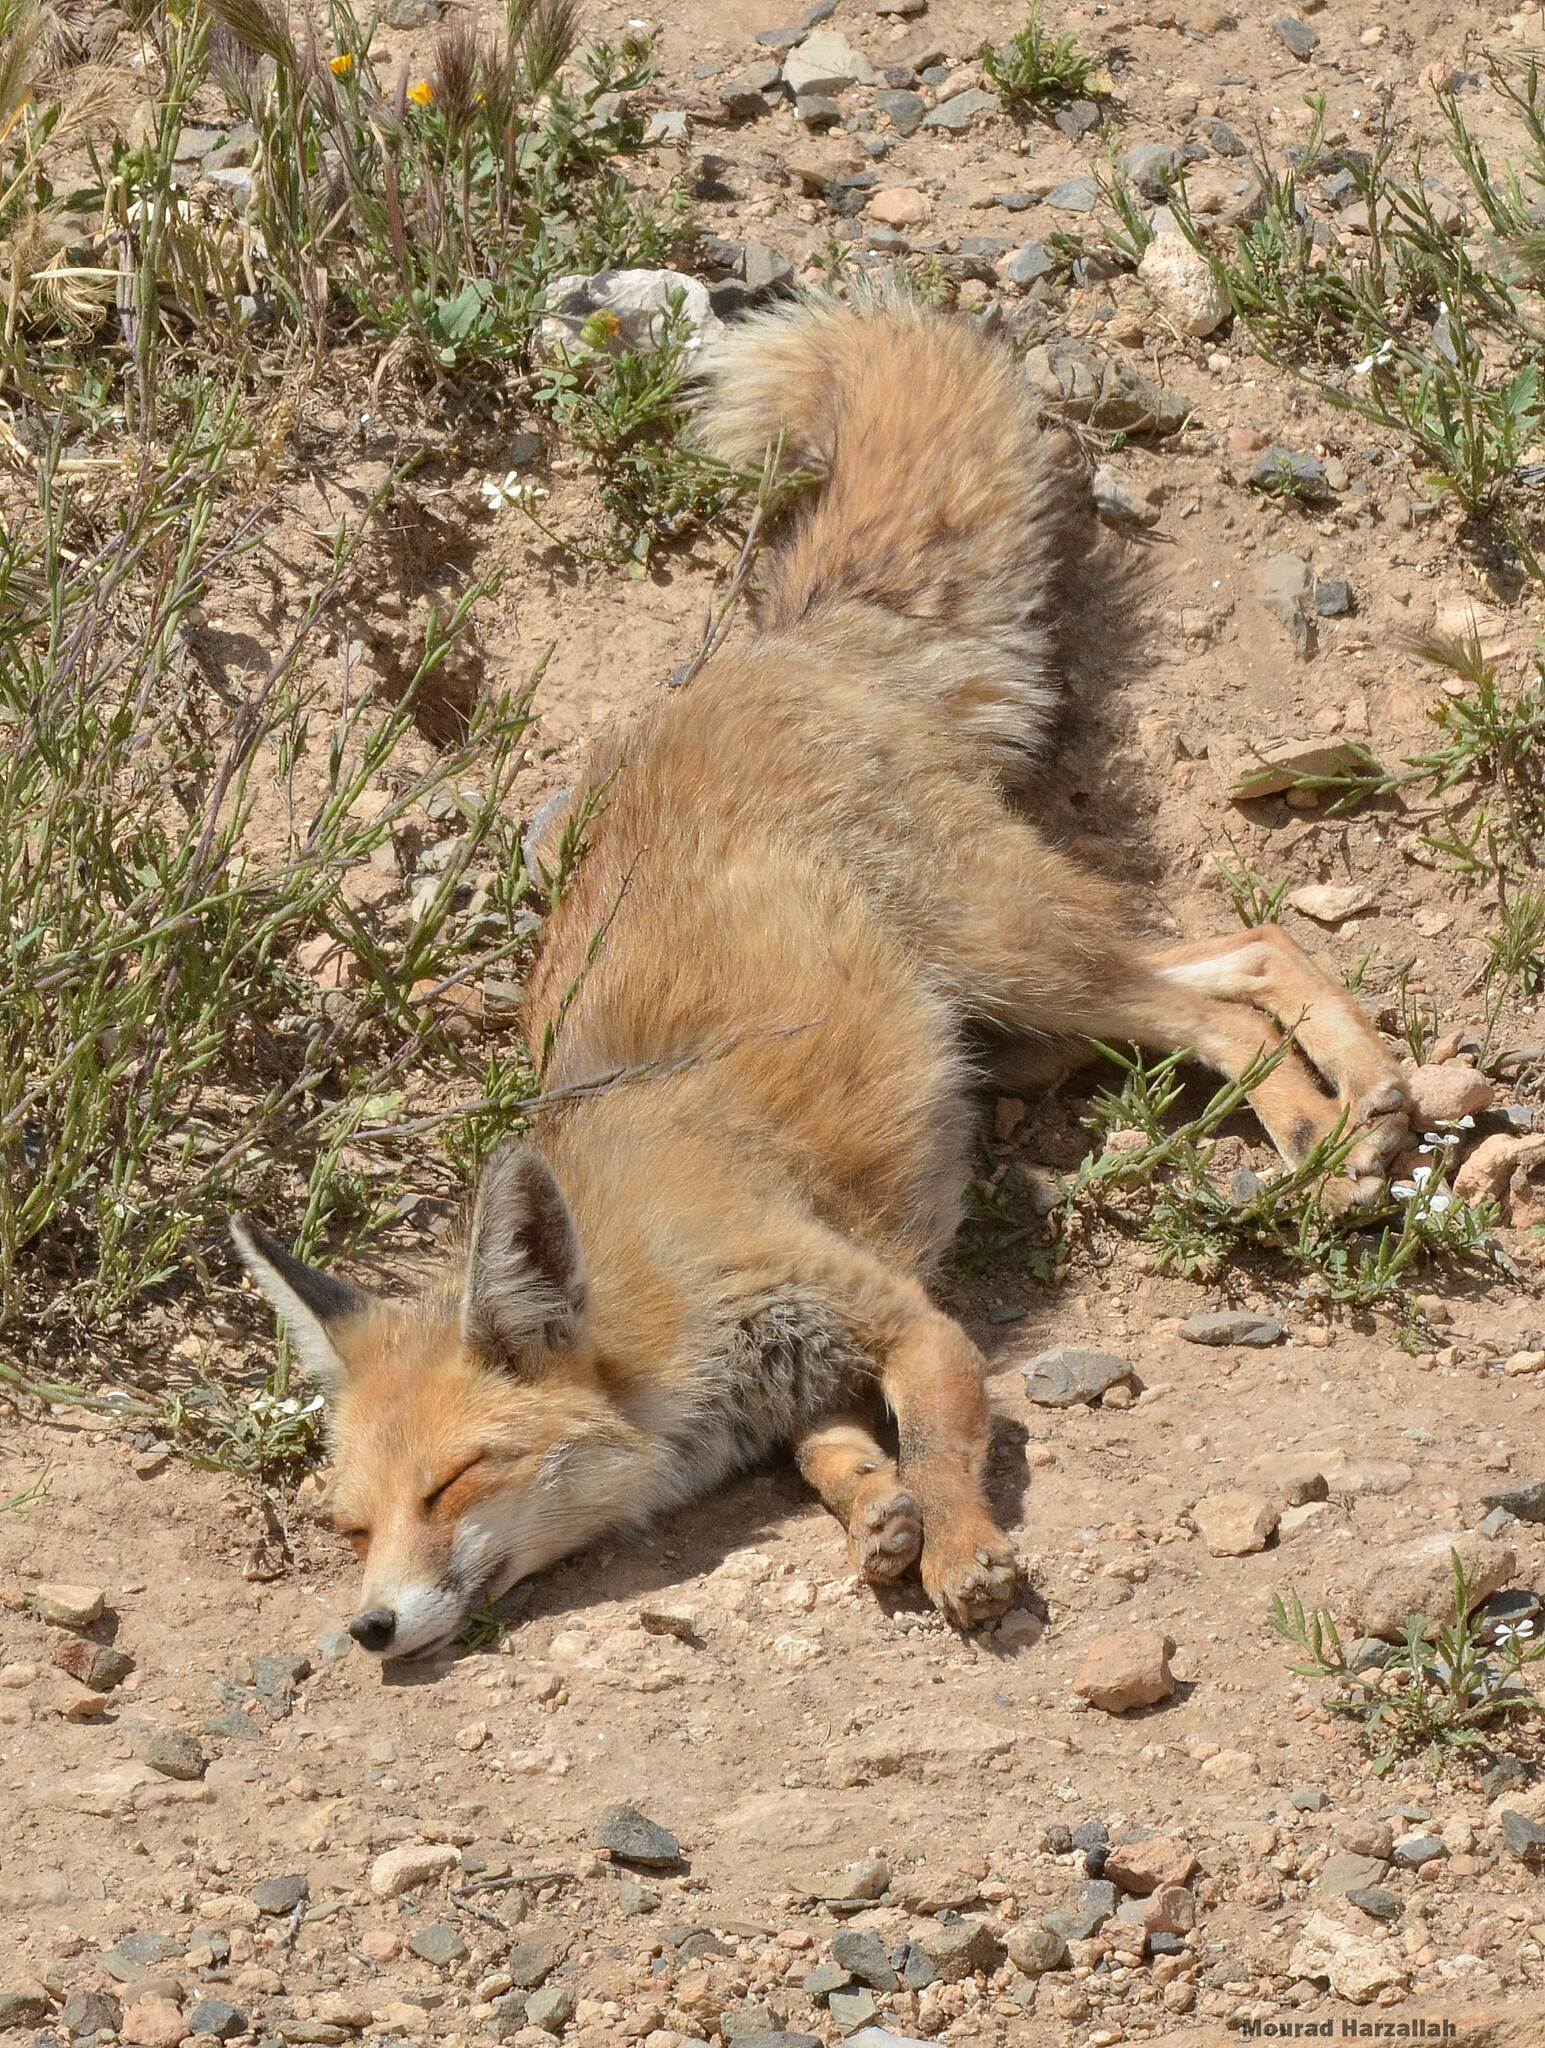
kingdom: Animalia
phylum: Chordata
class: Mammalia
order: Carnivora
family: Canidae
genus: Vulpes
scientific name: Vulpes vulpes
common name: Red fox
